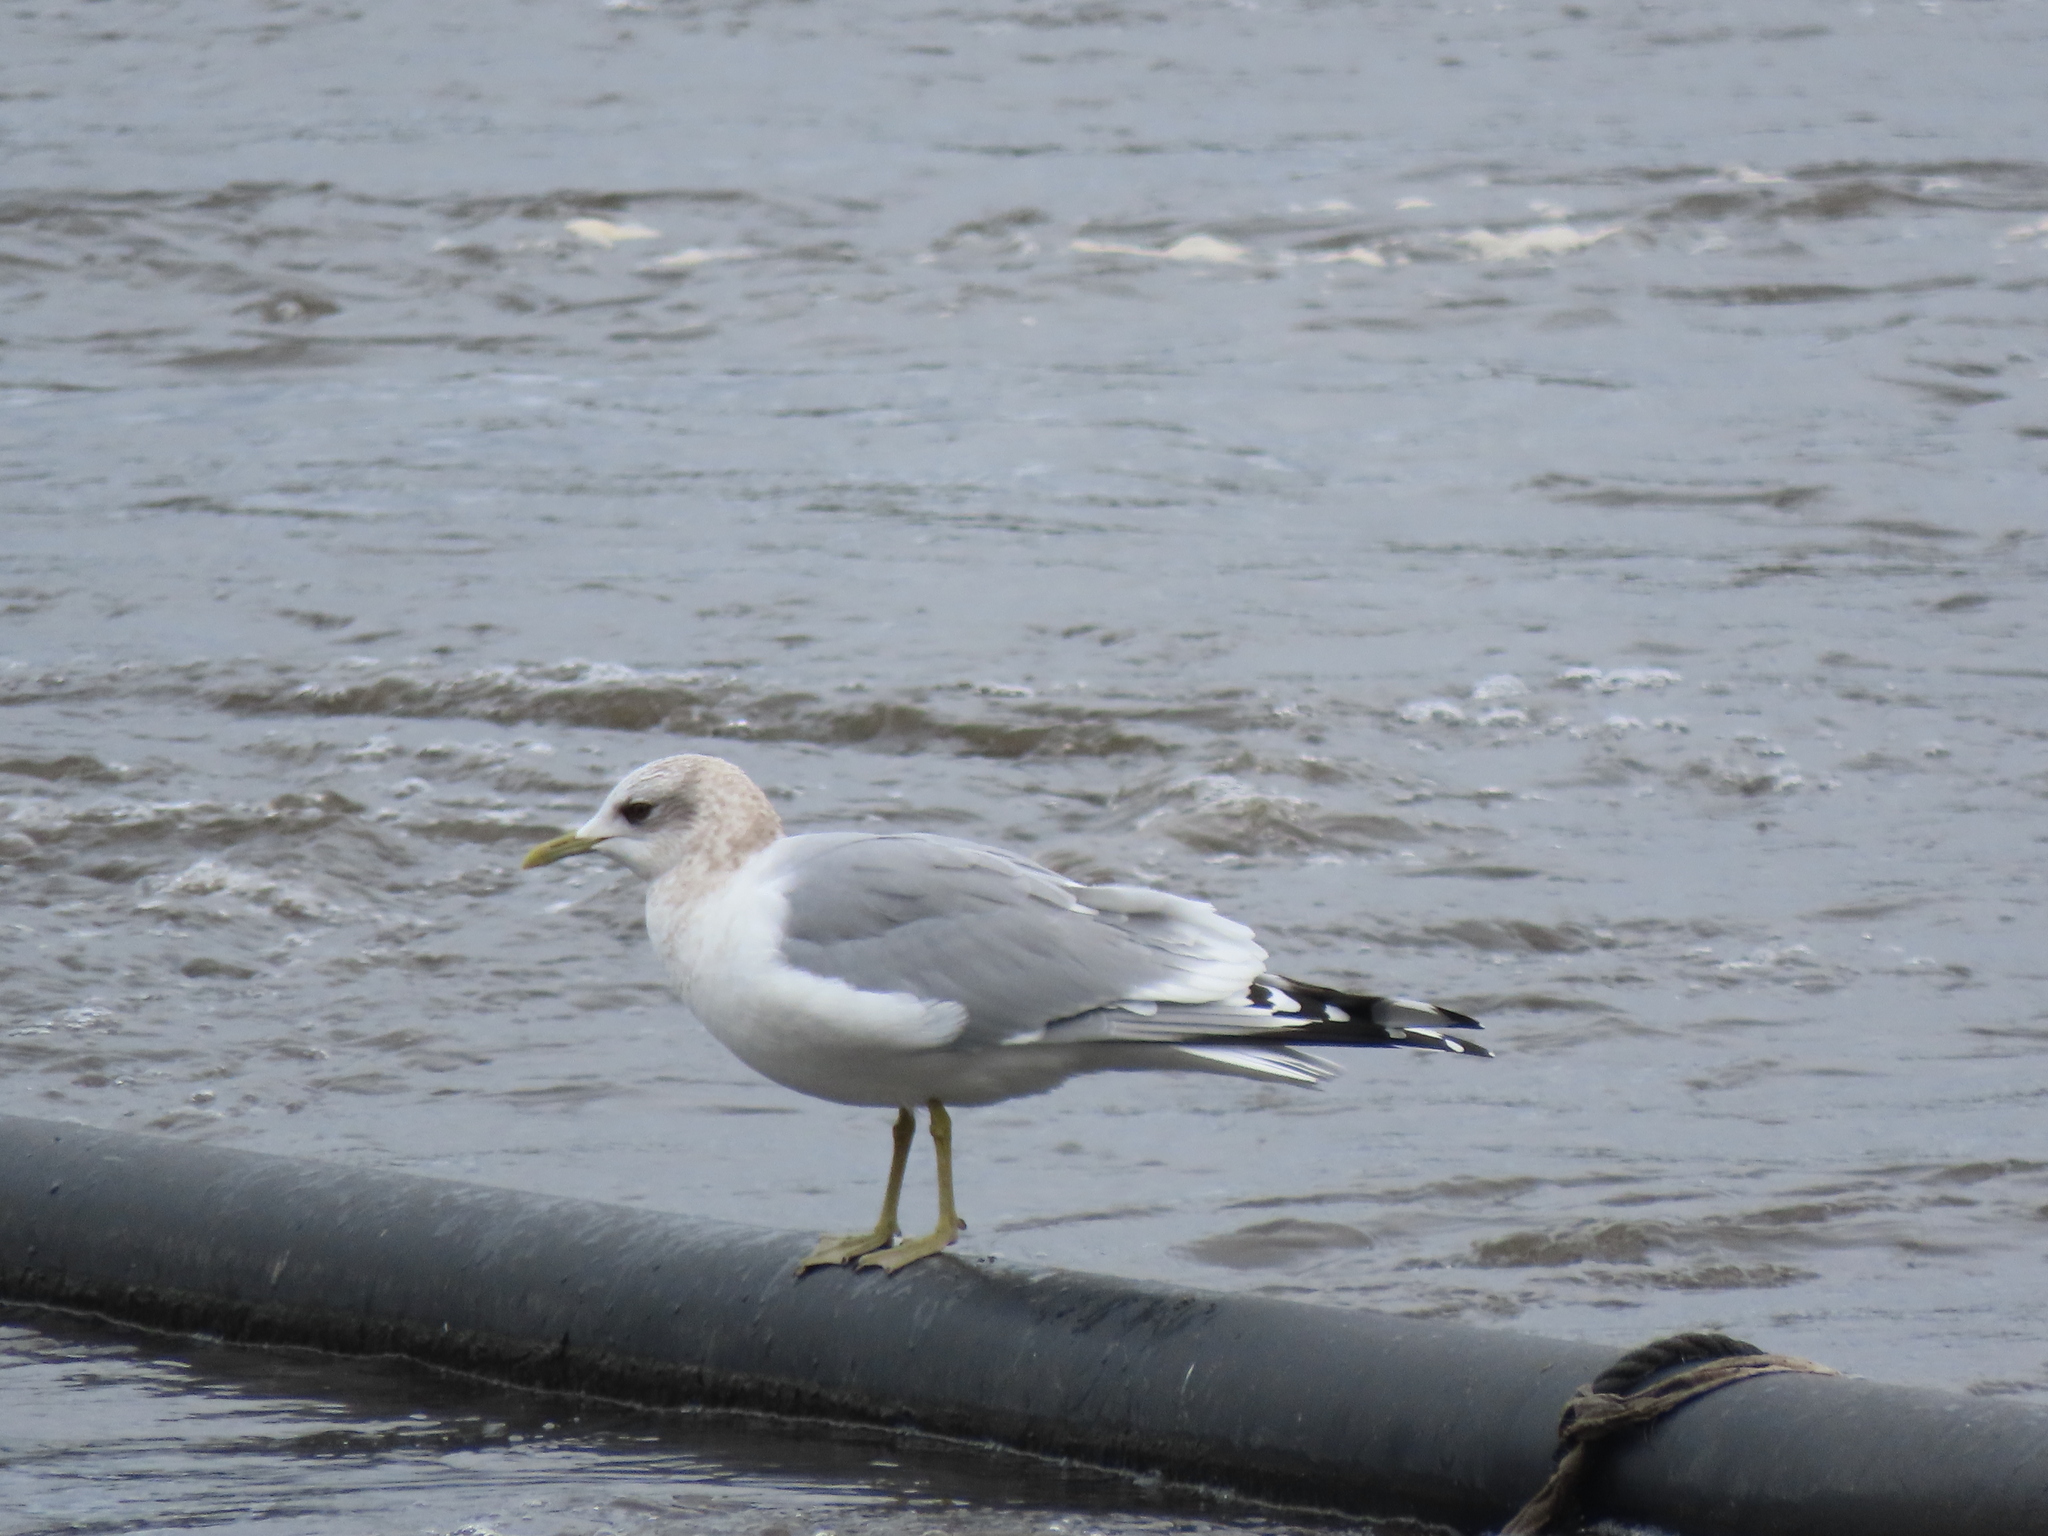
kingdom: Animalia
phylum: Chordata
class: Aves
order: Charadriiformes
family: Laridae
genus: Larus
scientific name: Larus brachyrhynchus
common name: Short-billed gull
